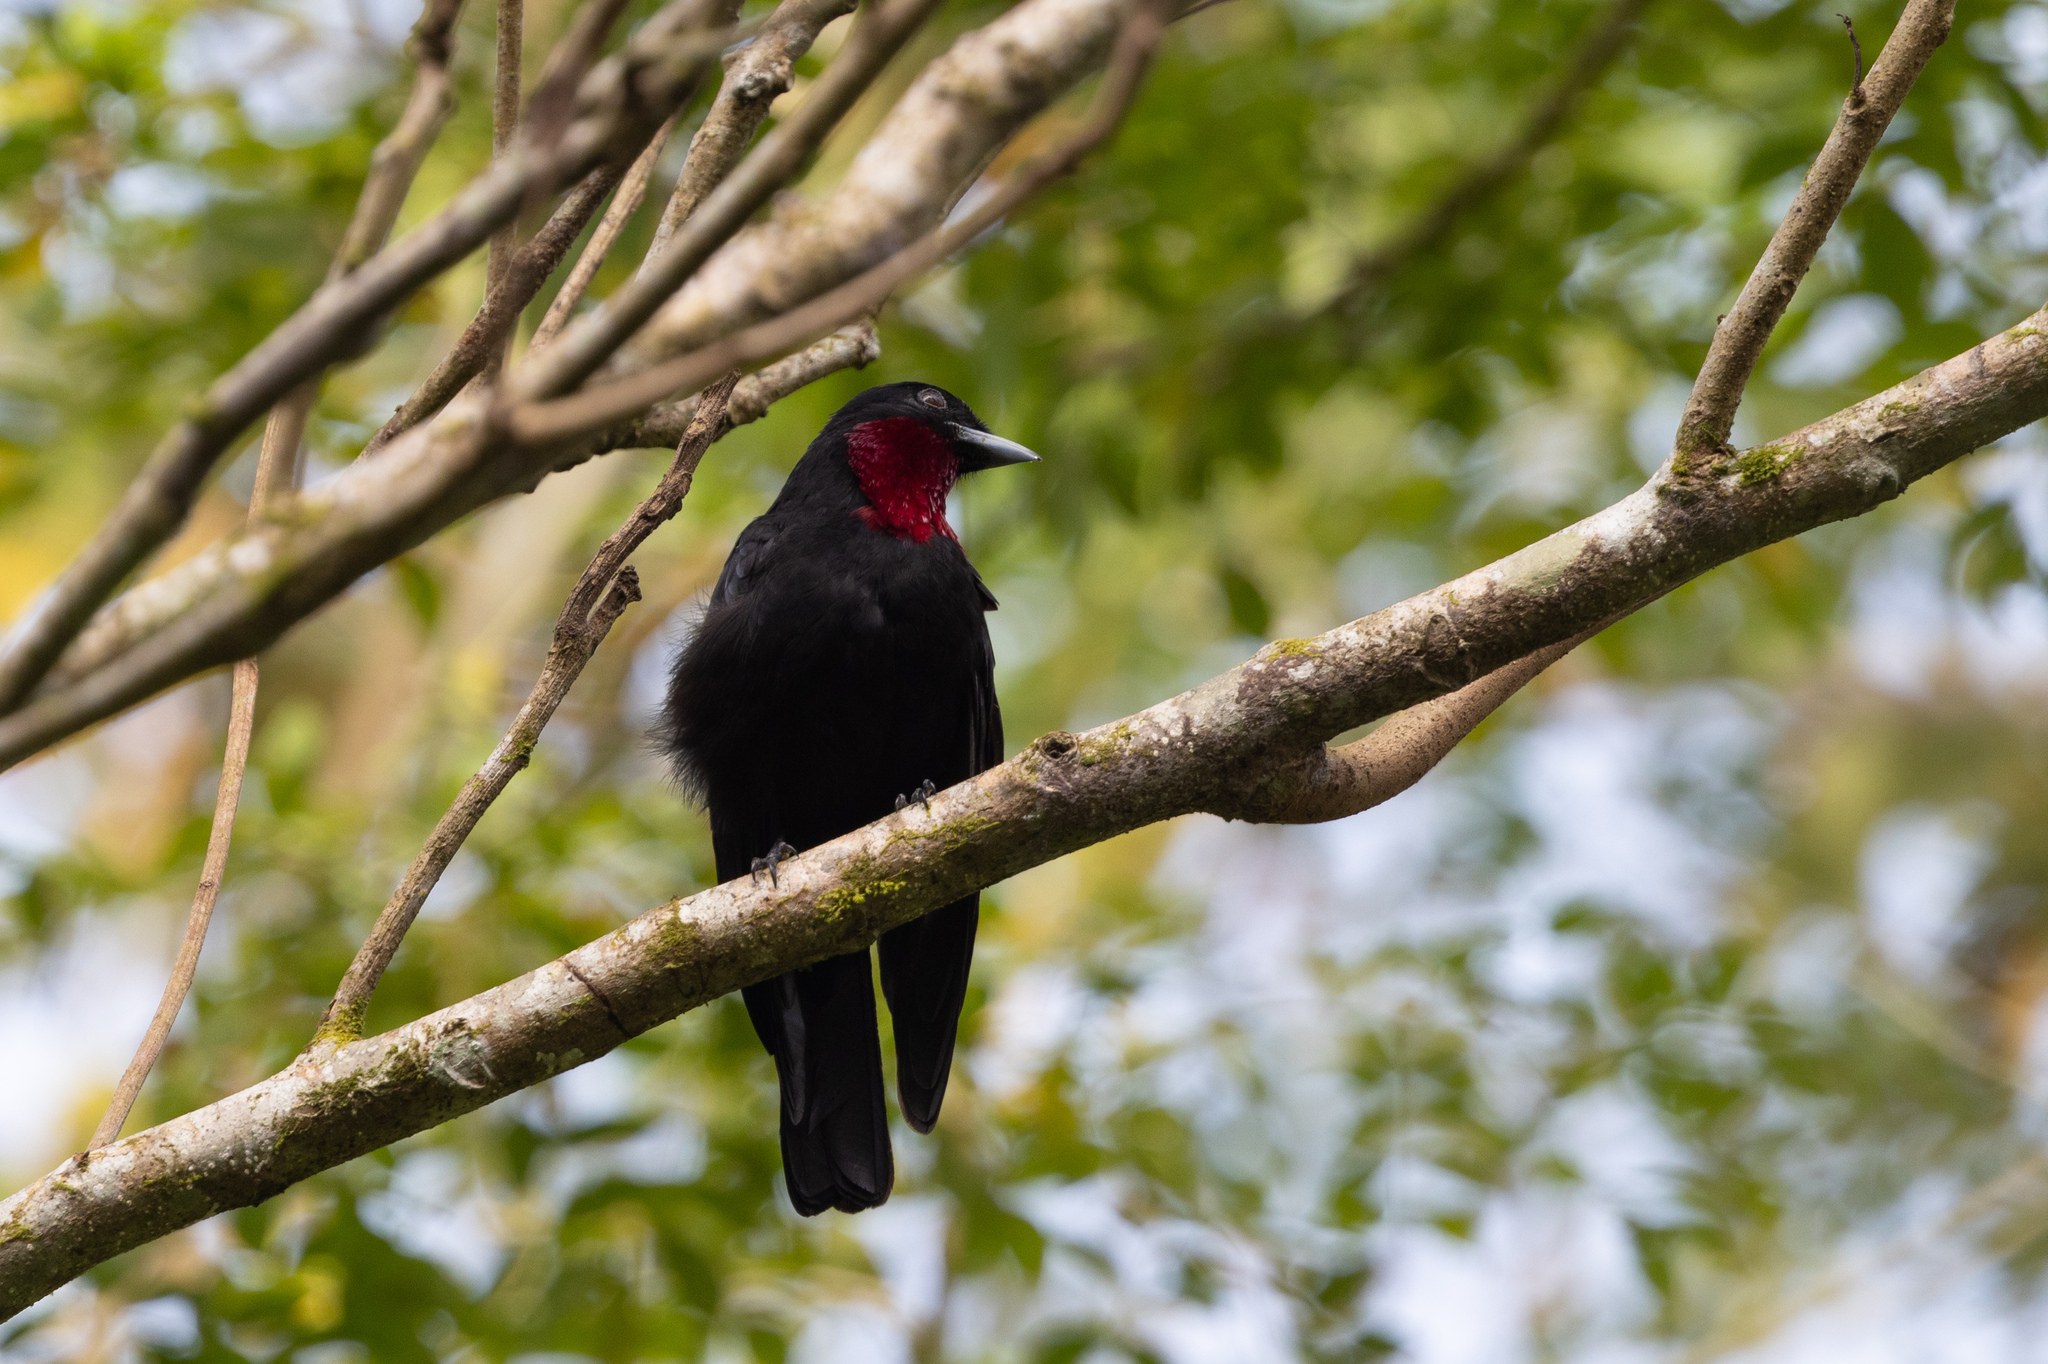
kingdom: Animalia
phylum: Chordata
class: Aves
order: Passeriformes
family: Cotingidae
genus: Querula
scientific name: Querula purpurata
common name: Purple-throated fruitcrow
